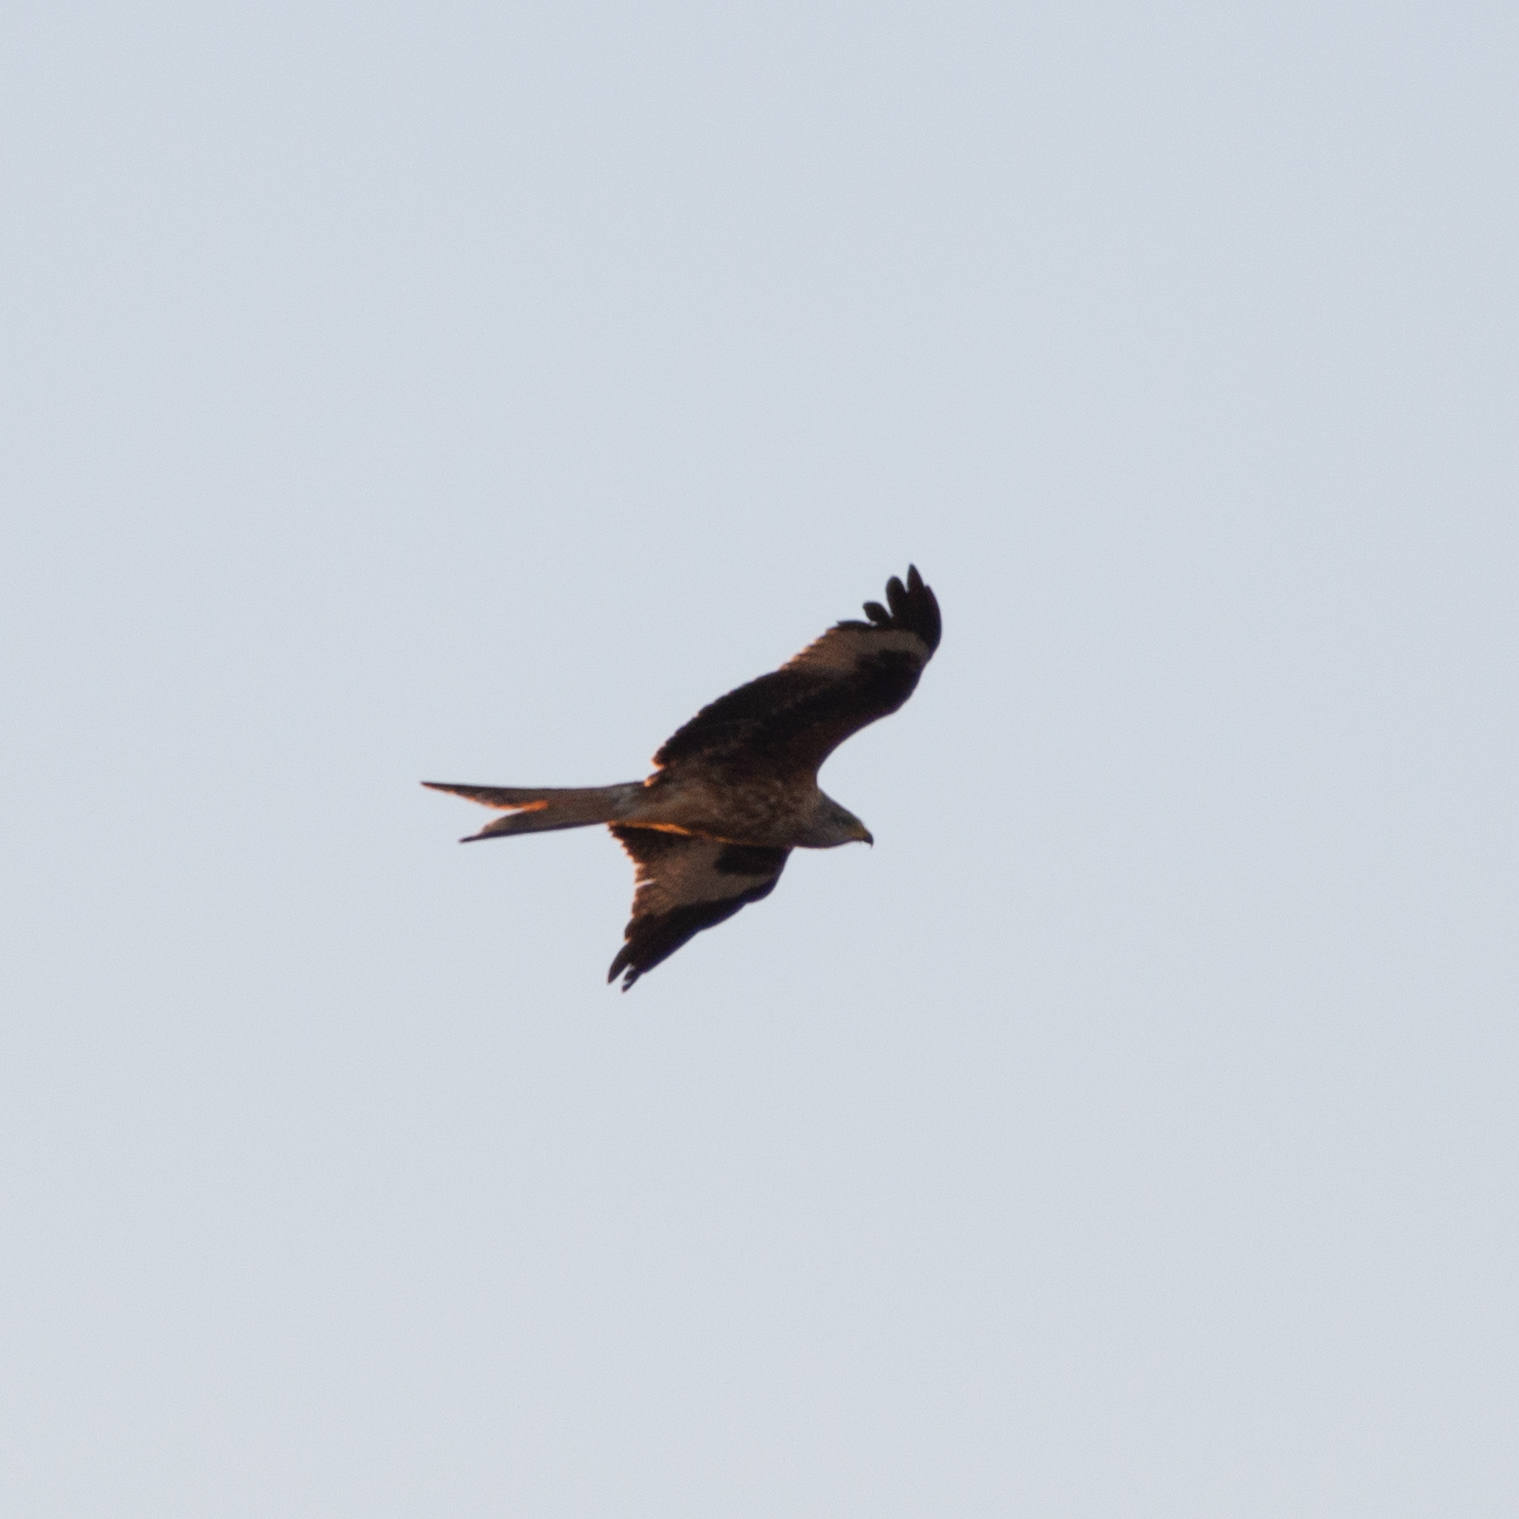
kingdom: Animalia
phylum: Chordata
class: Aves
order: Accipitriformes
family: Accipitridae
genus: Milvus
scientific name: Milvus milvus
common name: Red kite
